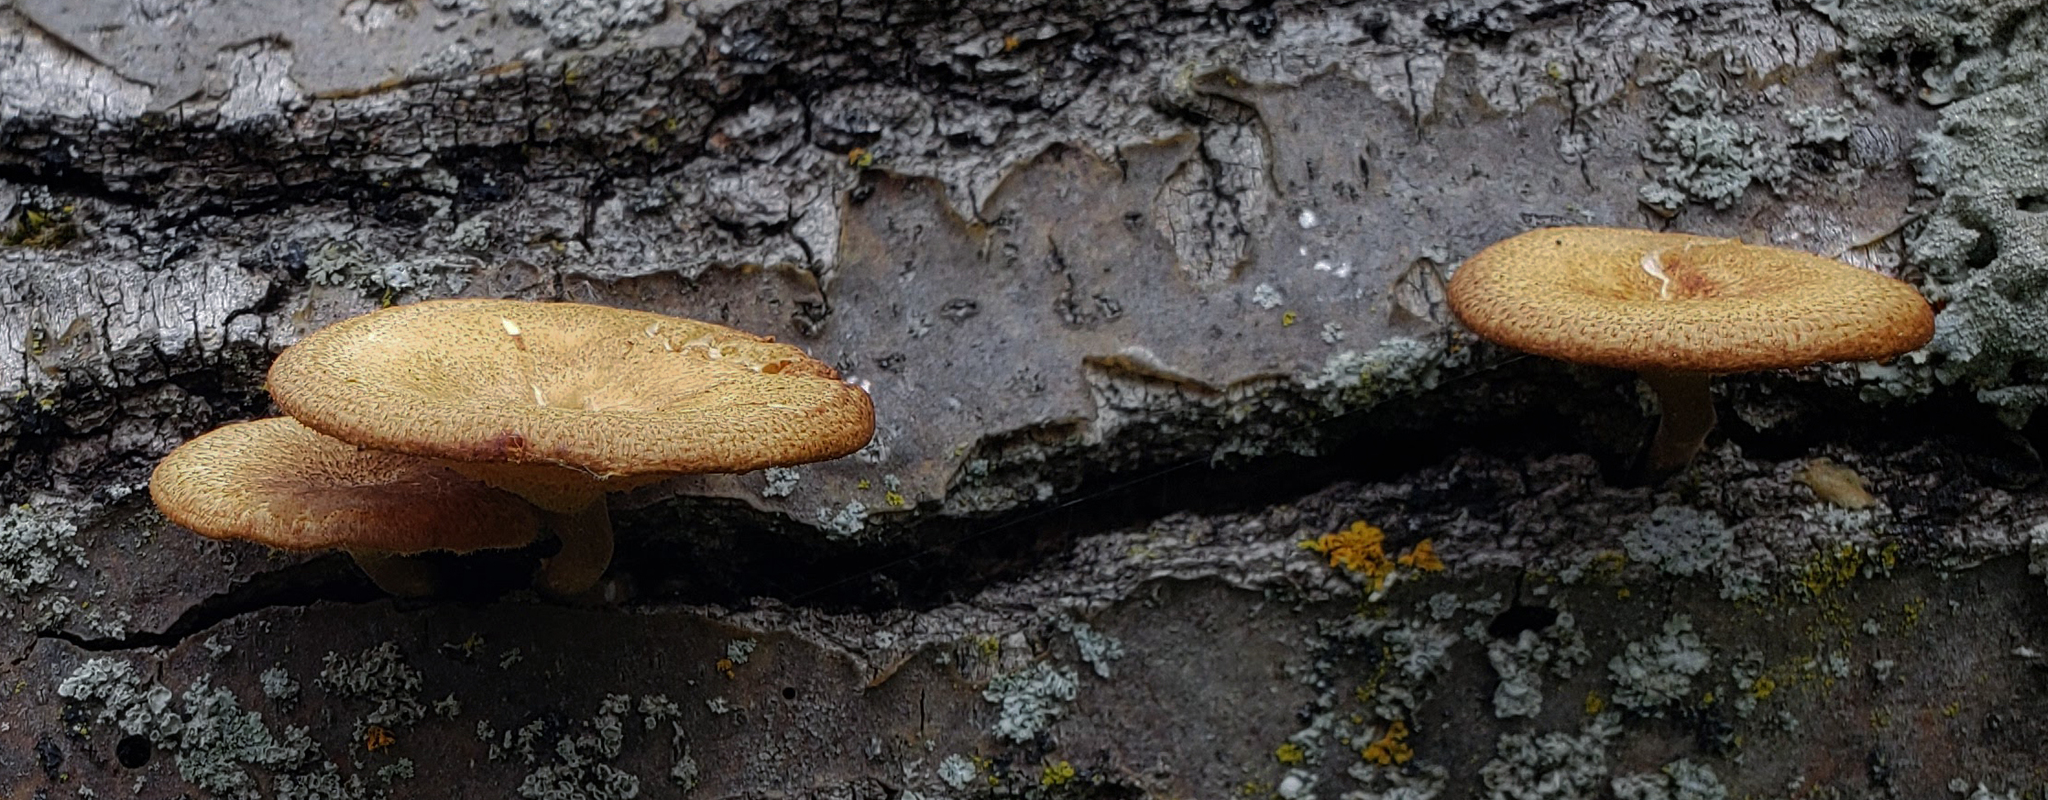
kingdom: Fungi
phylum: Basidiomycota
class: Agaricomycetes
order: Polyporales
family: Polyporaceae
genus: Lentinus
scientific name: Lentinus arcularius
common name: Spring polypore
